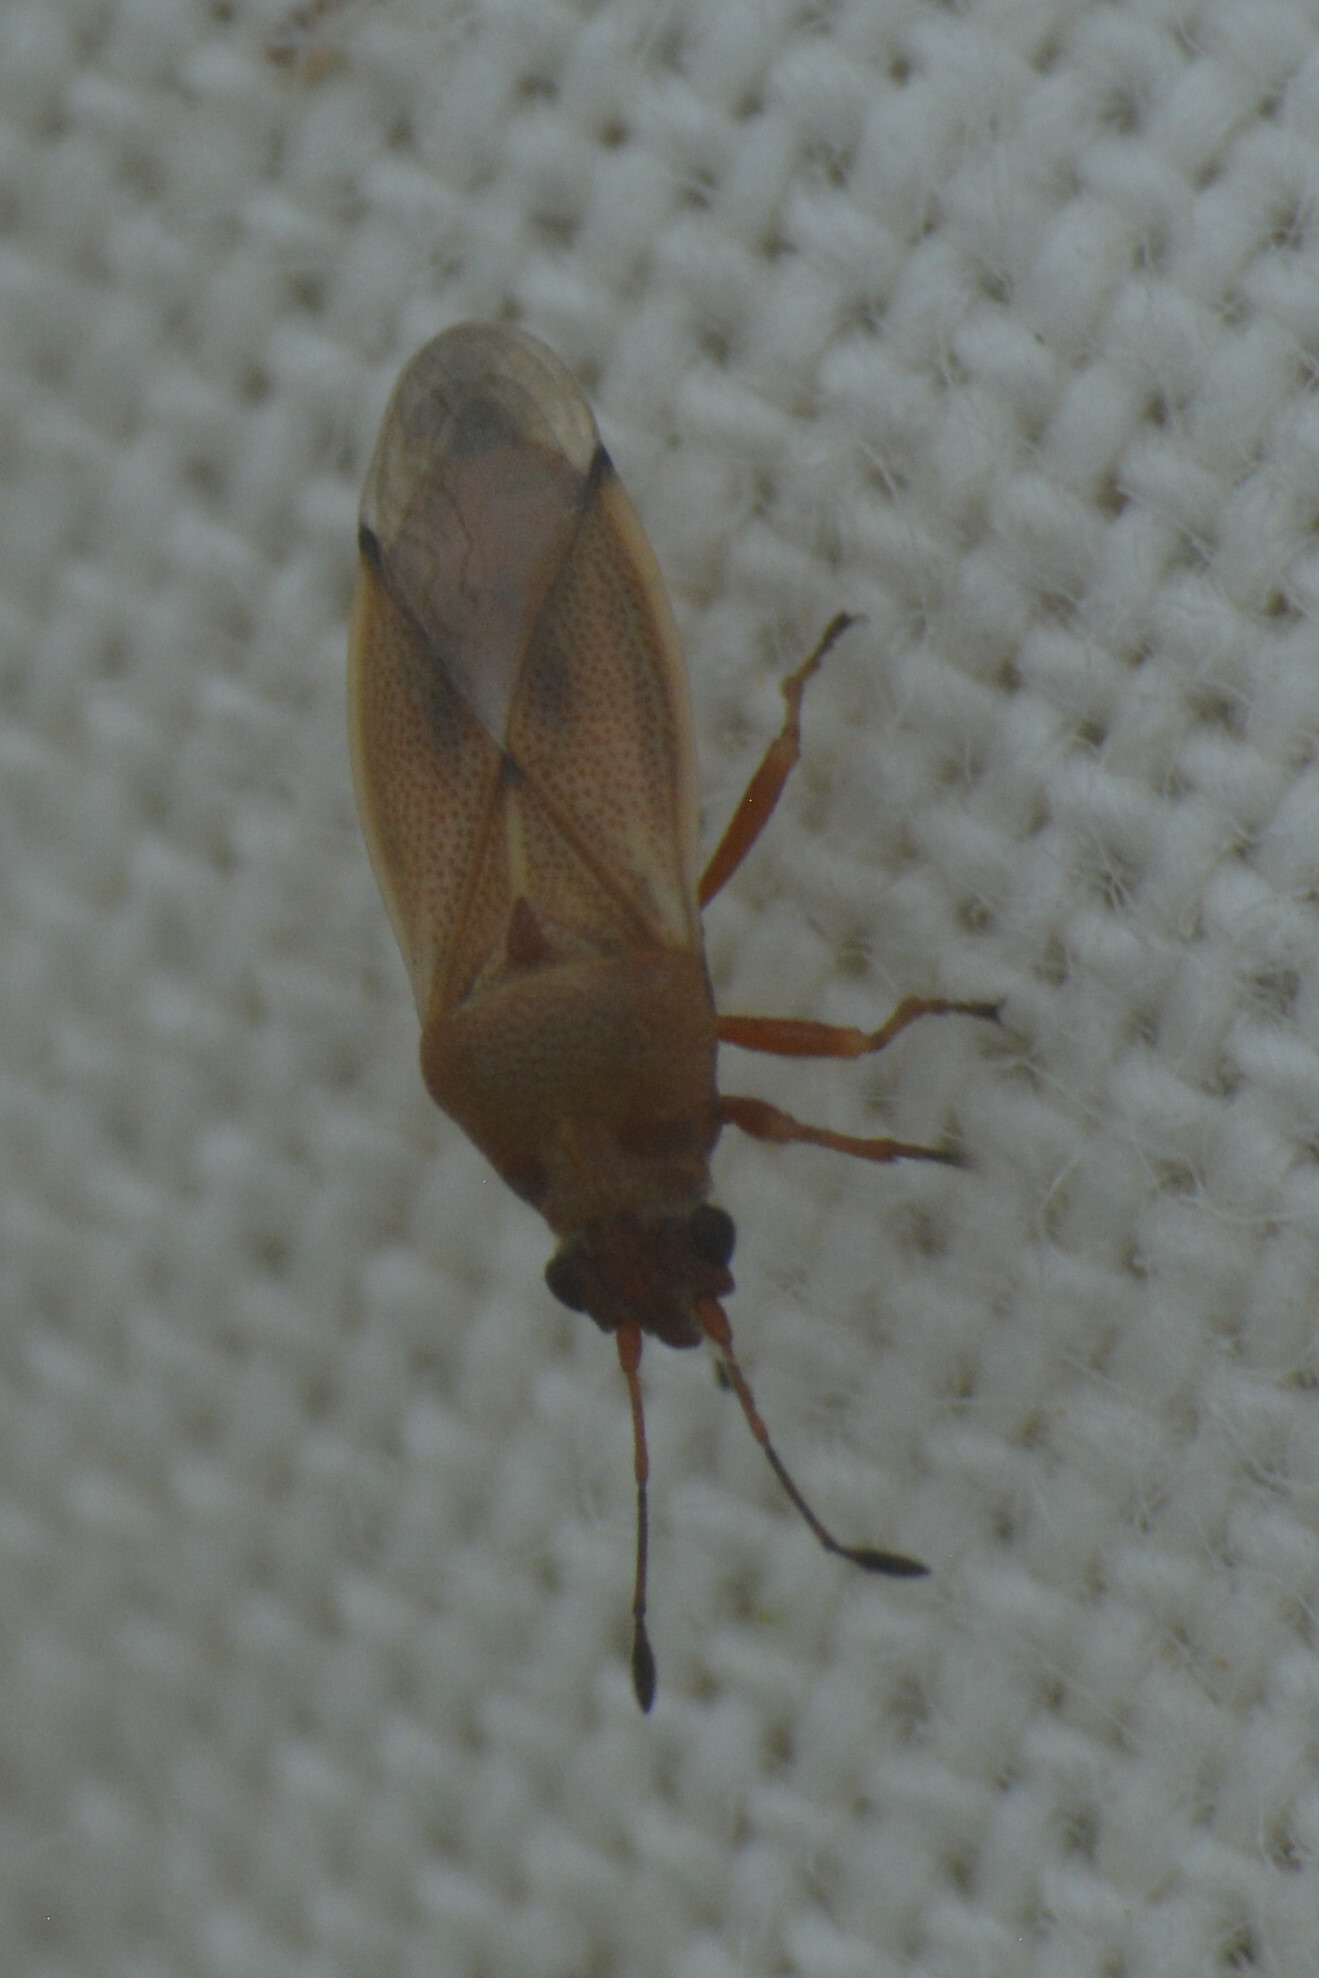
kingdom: Animalia
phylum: Arthropoda
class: Insecta
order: Hemiptera
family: Cymidae
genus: Cymus
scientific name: Cymus melanocephalus
